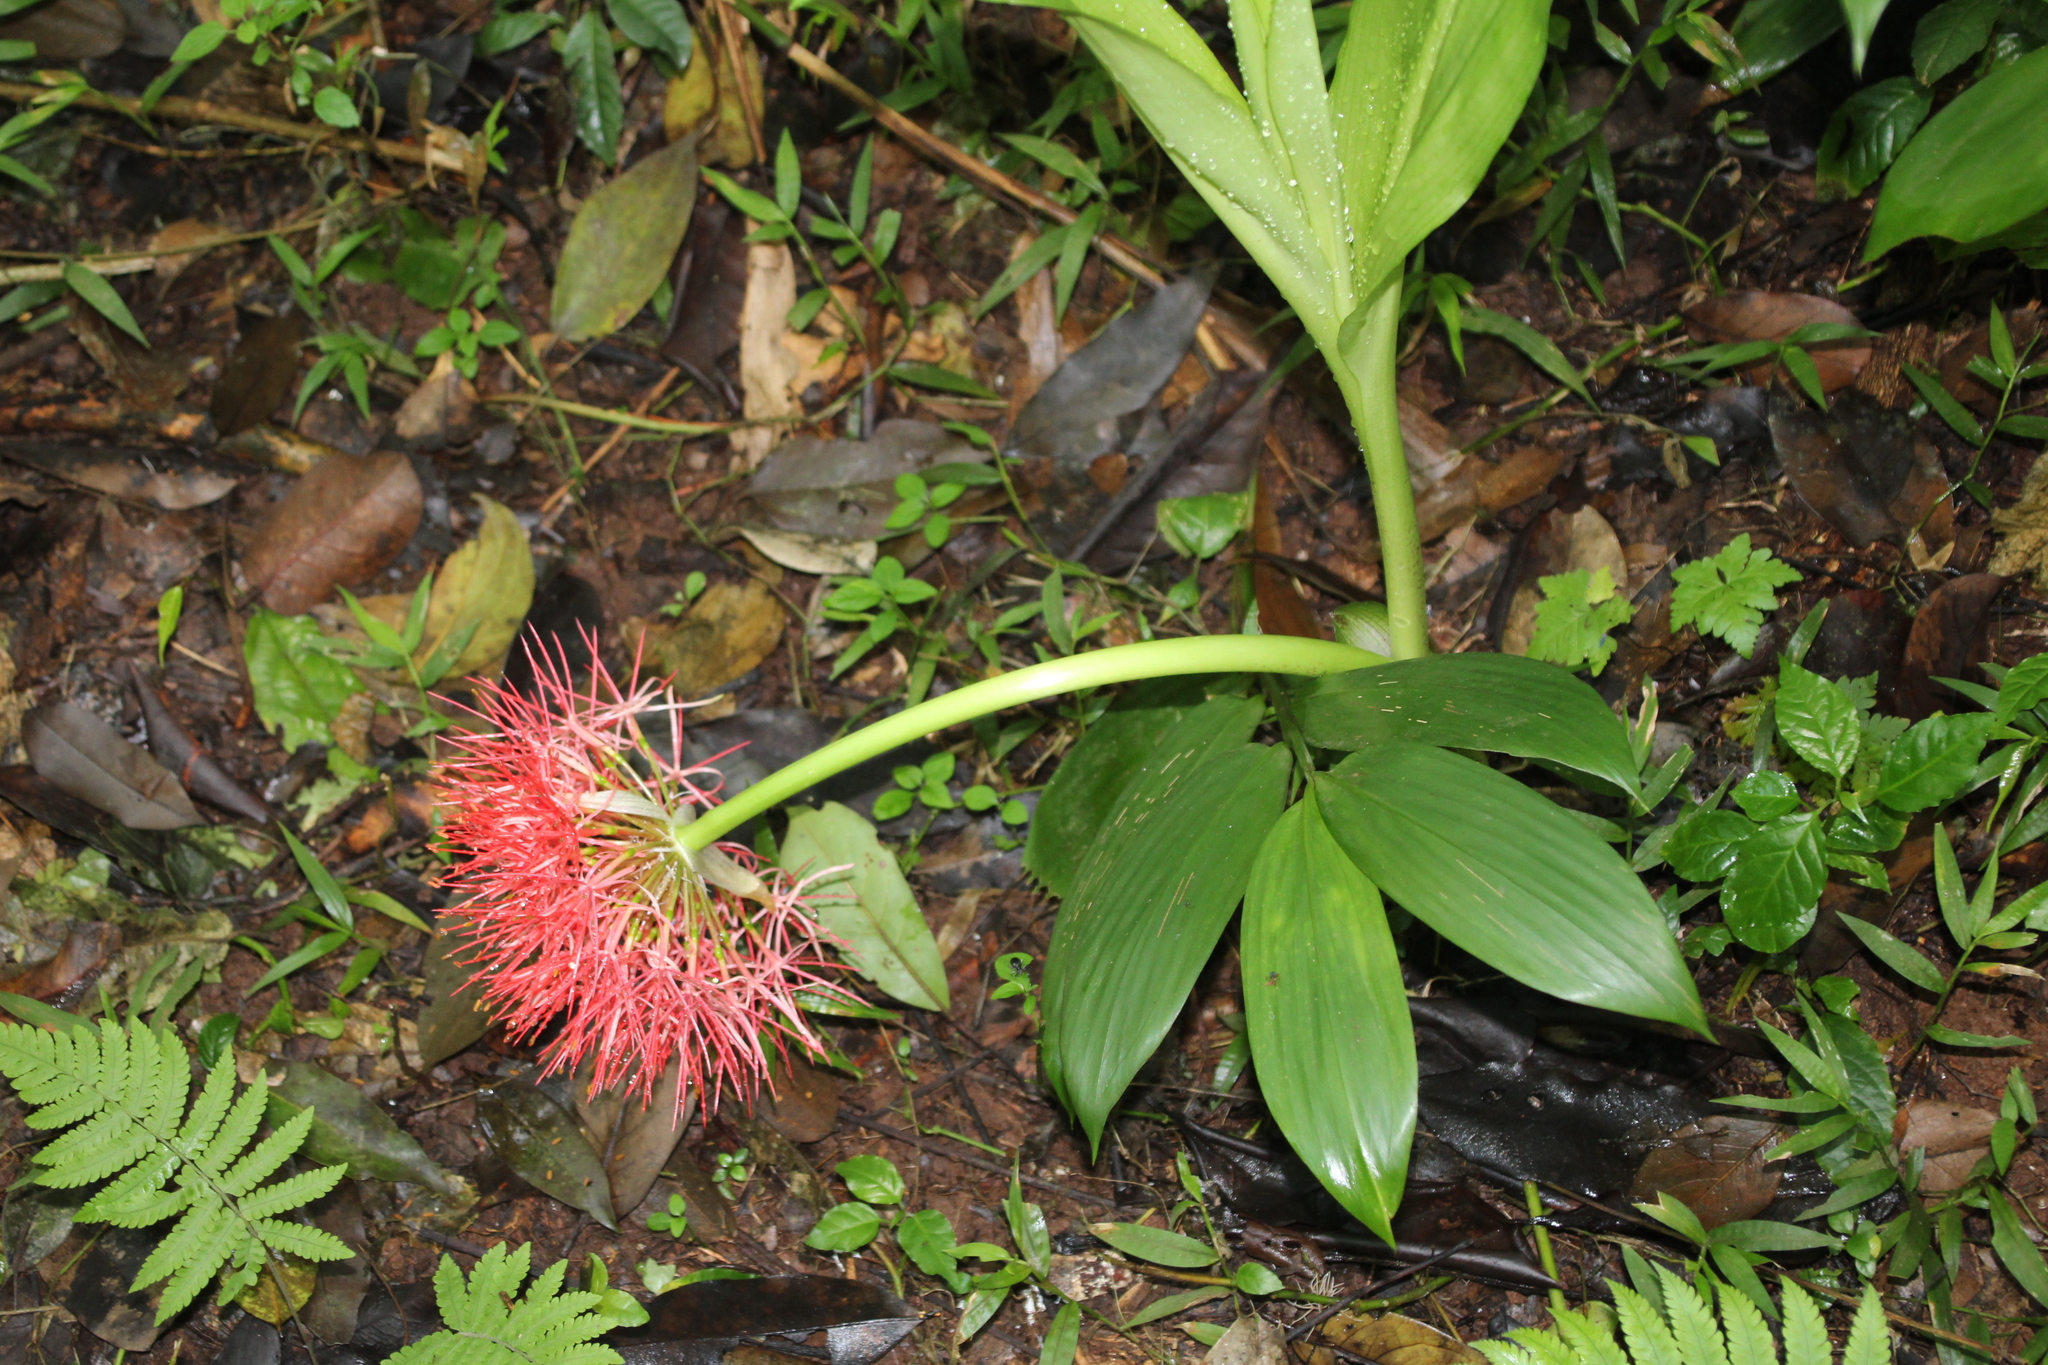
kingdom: Plantae
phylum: Tracheophyta
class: Liliopsida
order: Asparagales
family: Amaryllidaceae
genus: Scadoxus
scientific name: Scadoxus multiflorus
